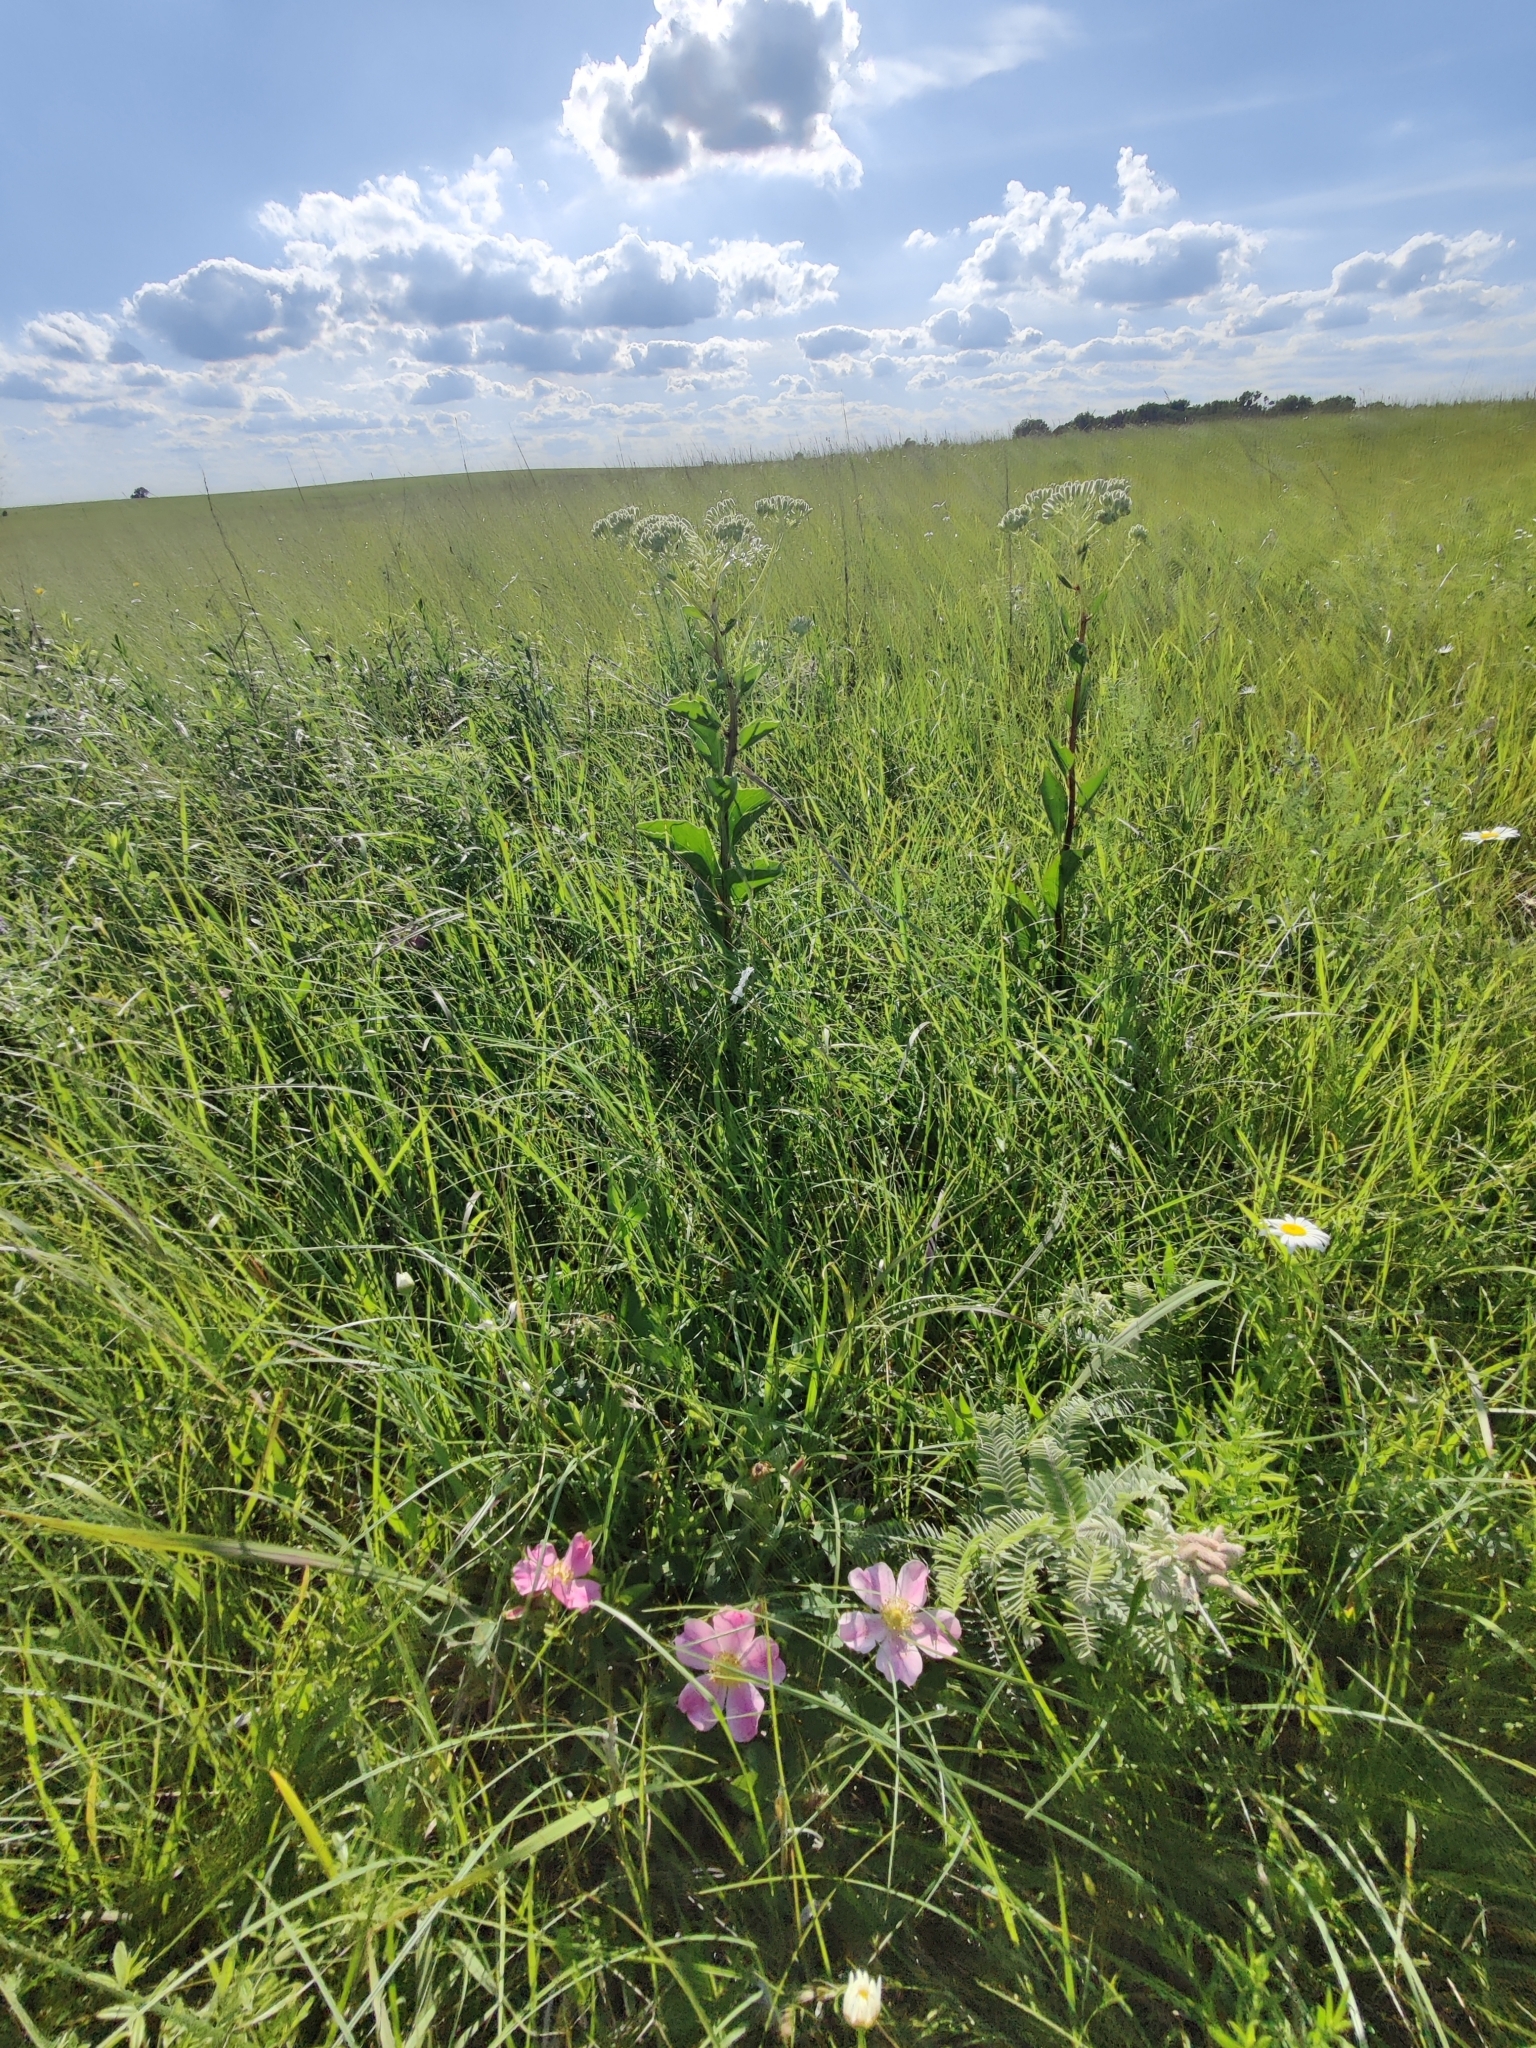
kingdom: Plantae
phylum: Tracheophyta
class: Magnoliopsida
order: Rosales
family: Rosaceae
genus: Rosa
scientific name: Rosa arkansana
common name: Prairie rose
